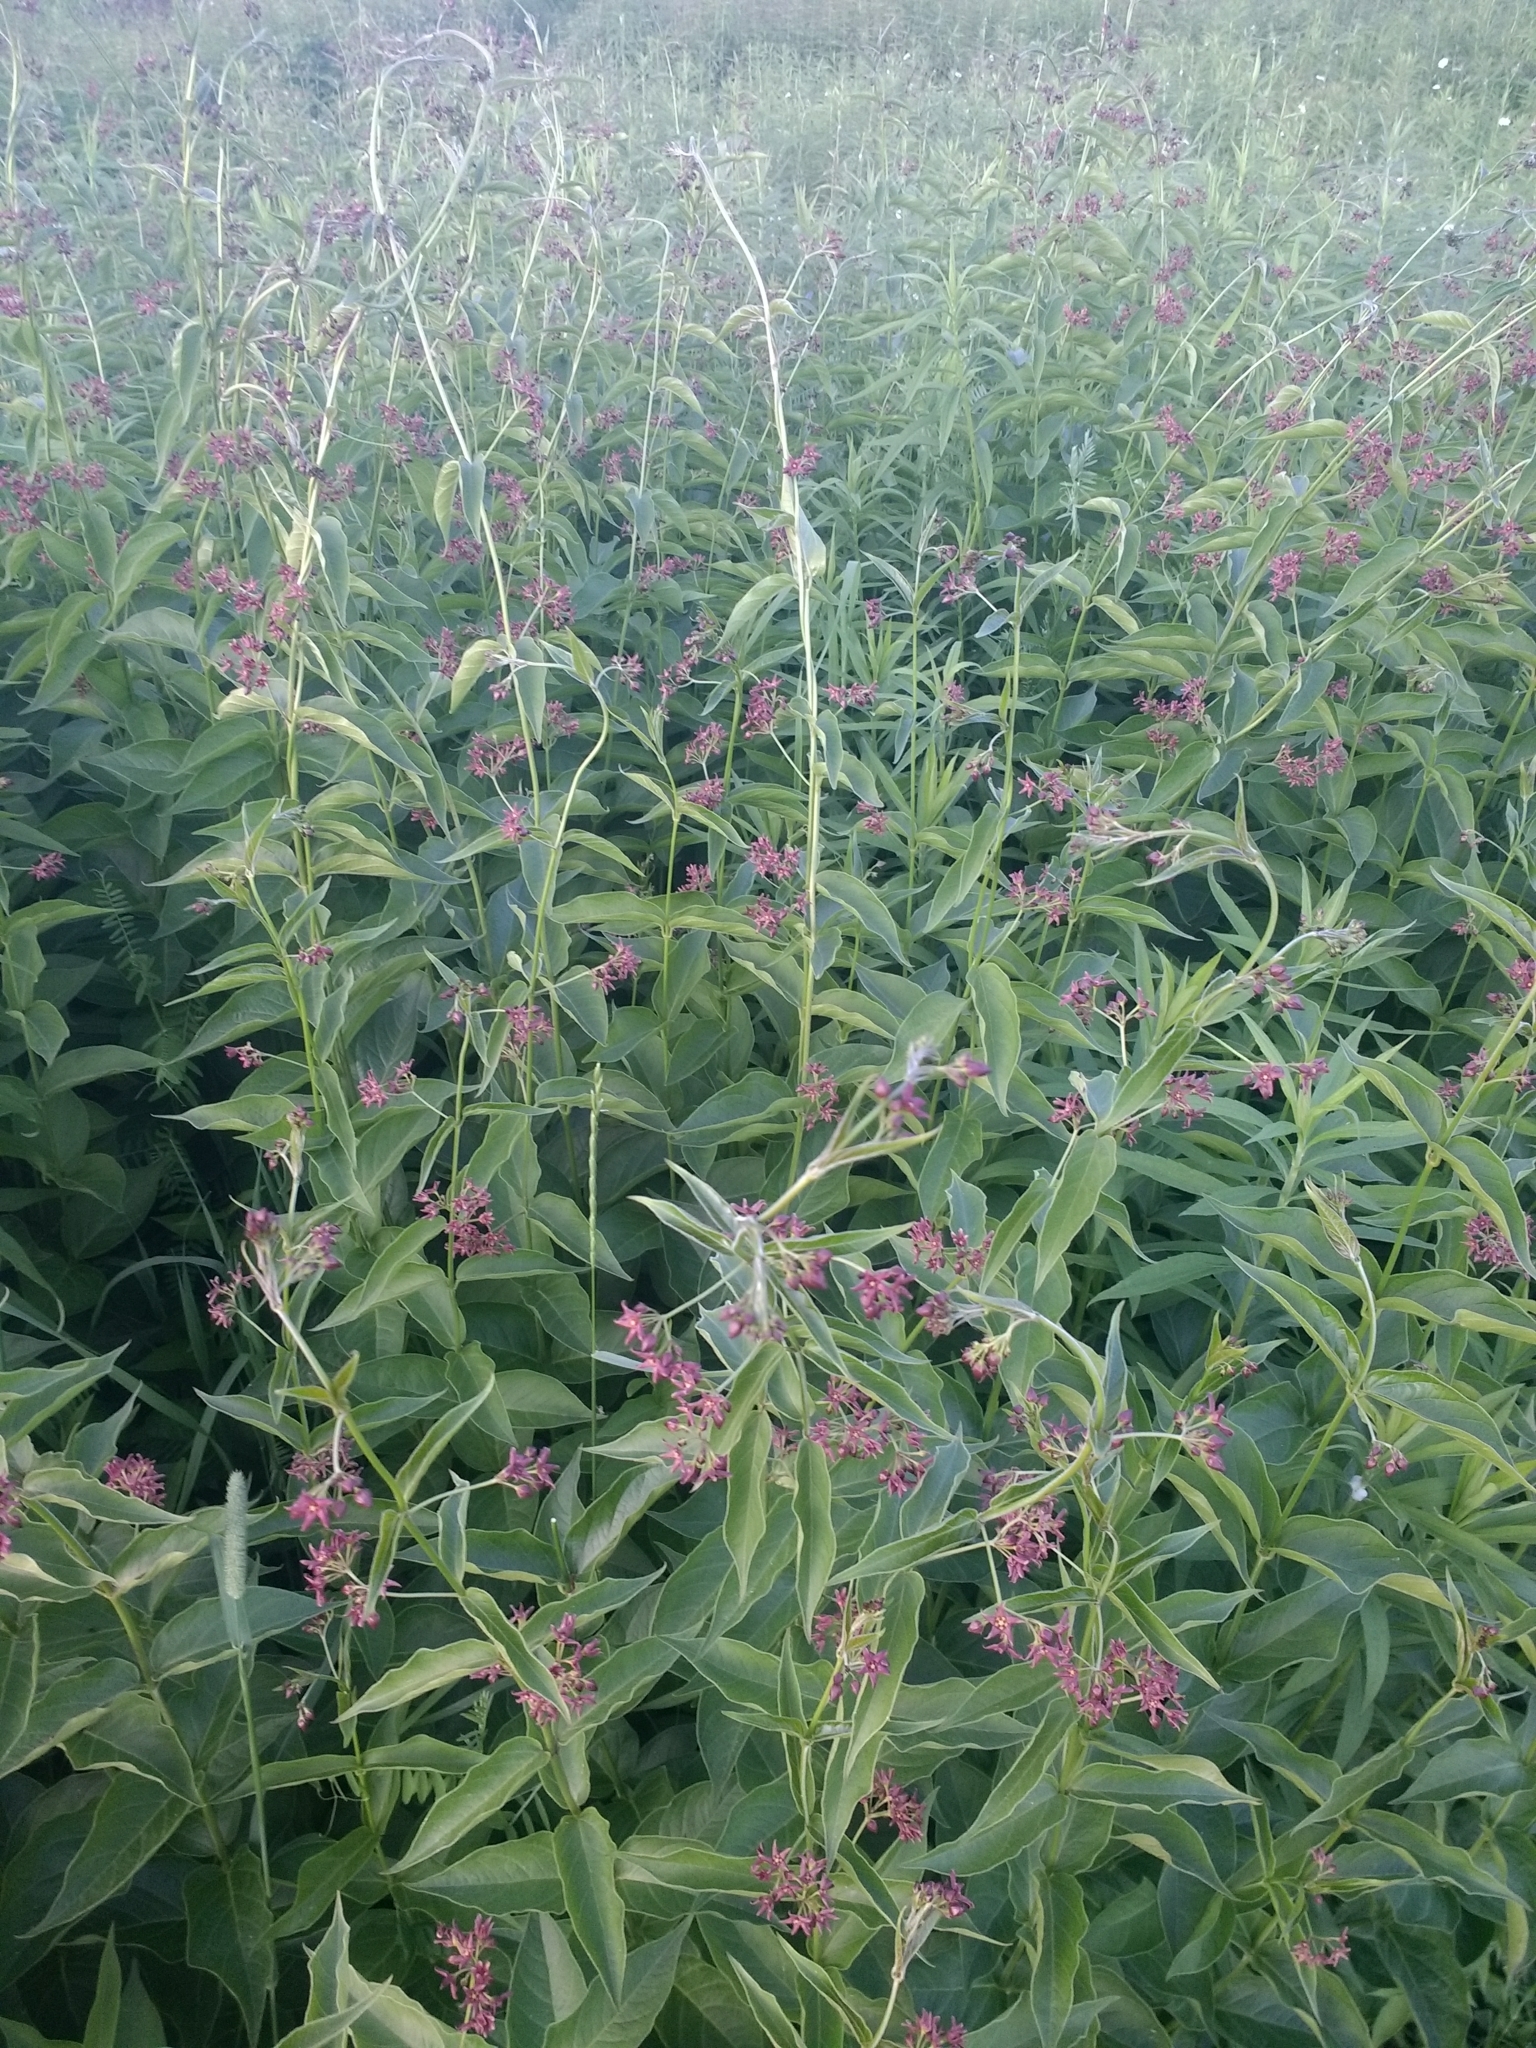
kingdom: Plantae
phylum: Tracheophyta
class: Magnoliopsida
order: Gentianales
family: Apocynaceae
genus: Vincetoxicum
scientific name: Vincetoxicum rossicum
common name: Dog-strangling vine
